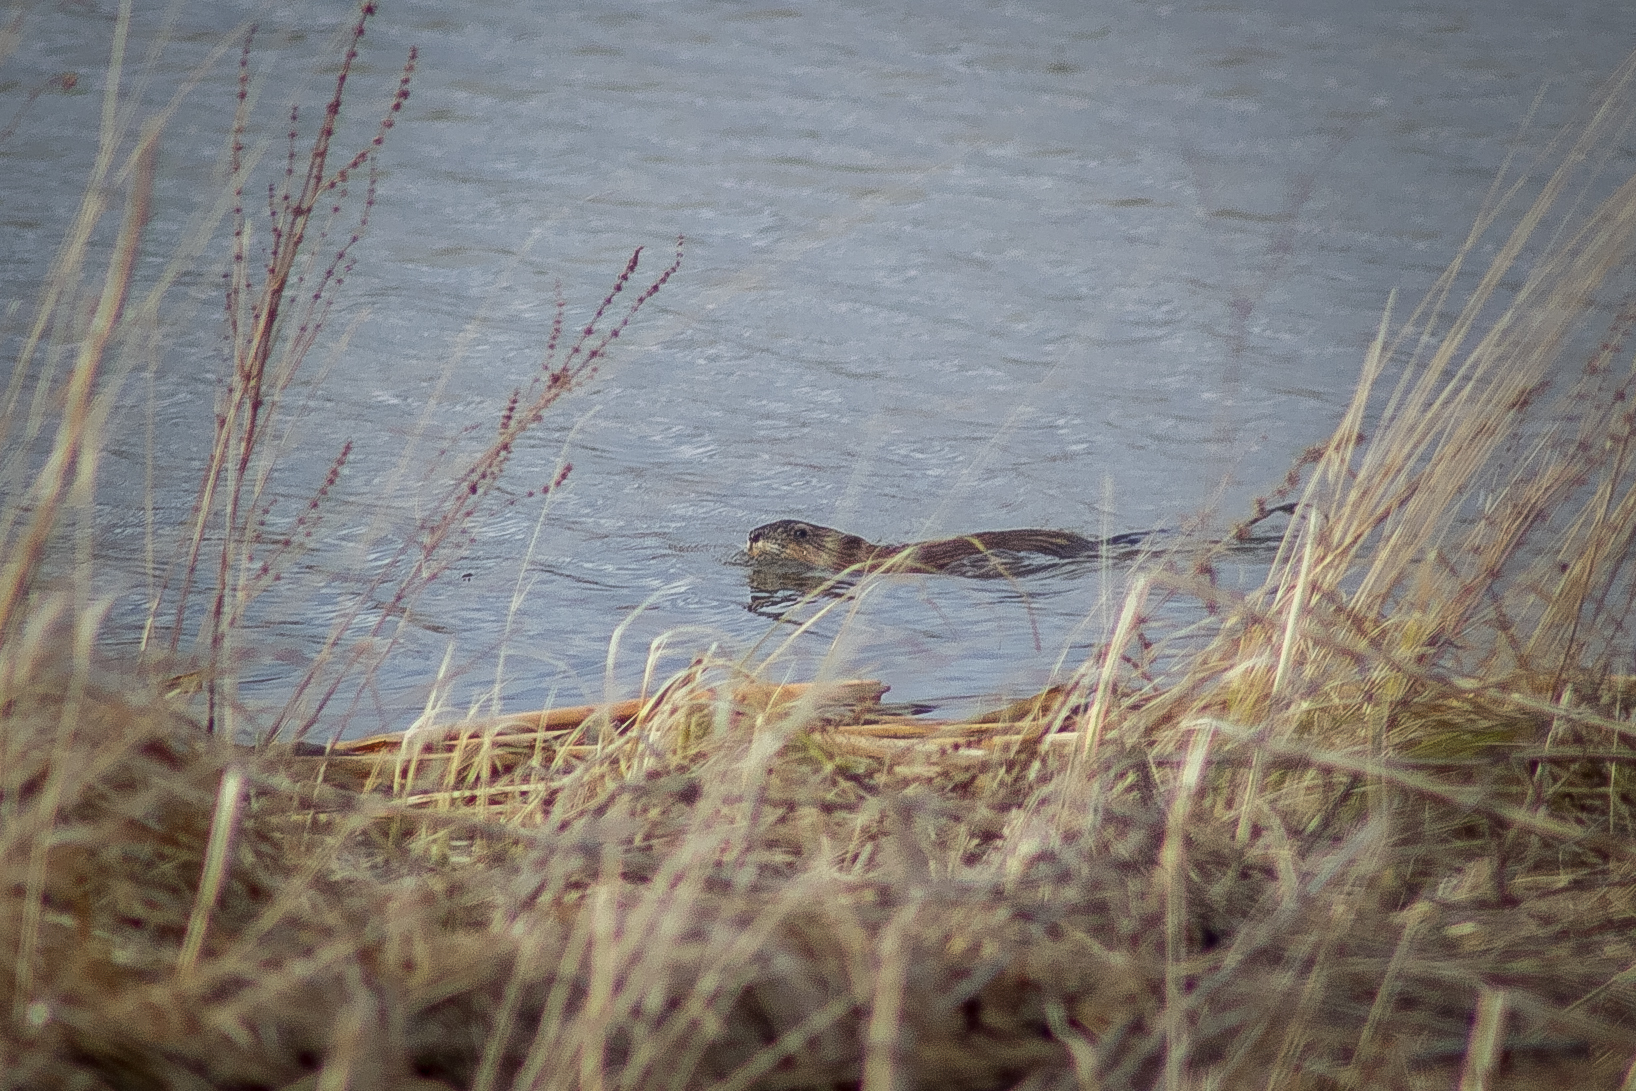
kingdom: Animalia
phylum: Chordata
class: Mammalia
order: Rodentia
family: Cricetidae
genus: Ondatra
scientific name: Ondatra zibethicus
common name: Muskrat
